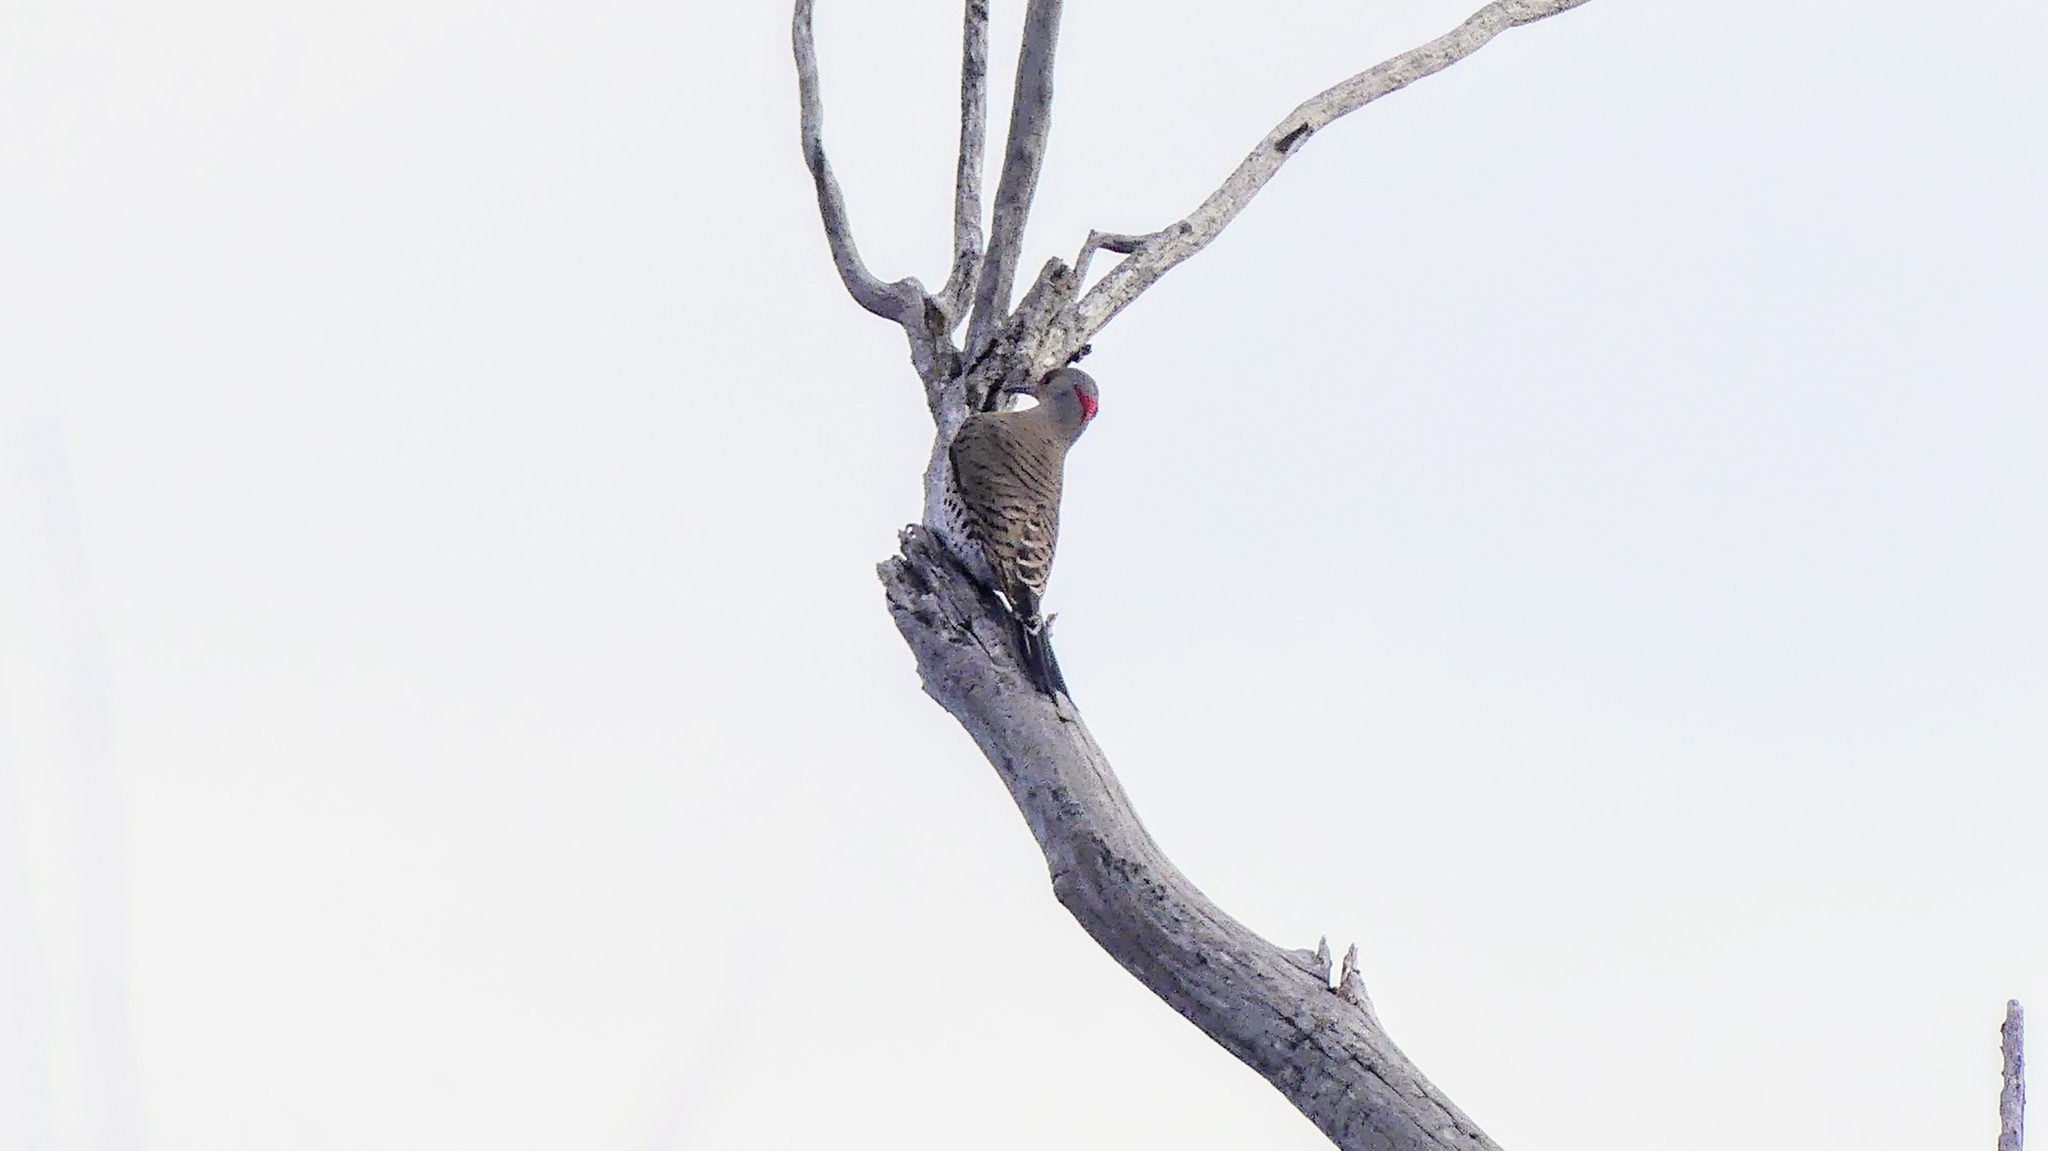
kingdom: Animalia
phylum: Chordata
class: Aves
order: Piciformes
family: Picidae
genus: Colaptes
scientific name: Colaptes auratus
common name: Northern flicker
